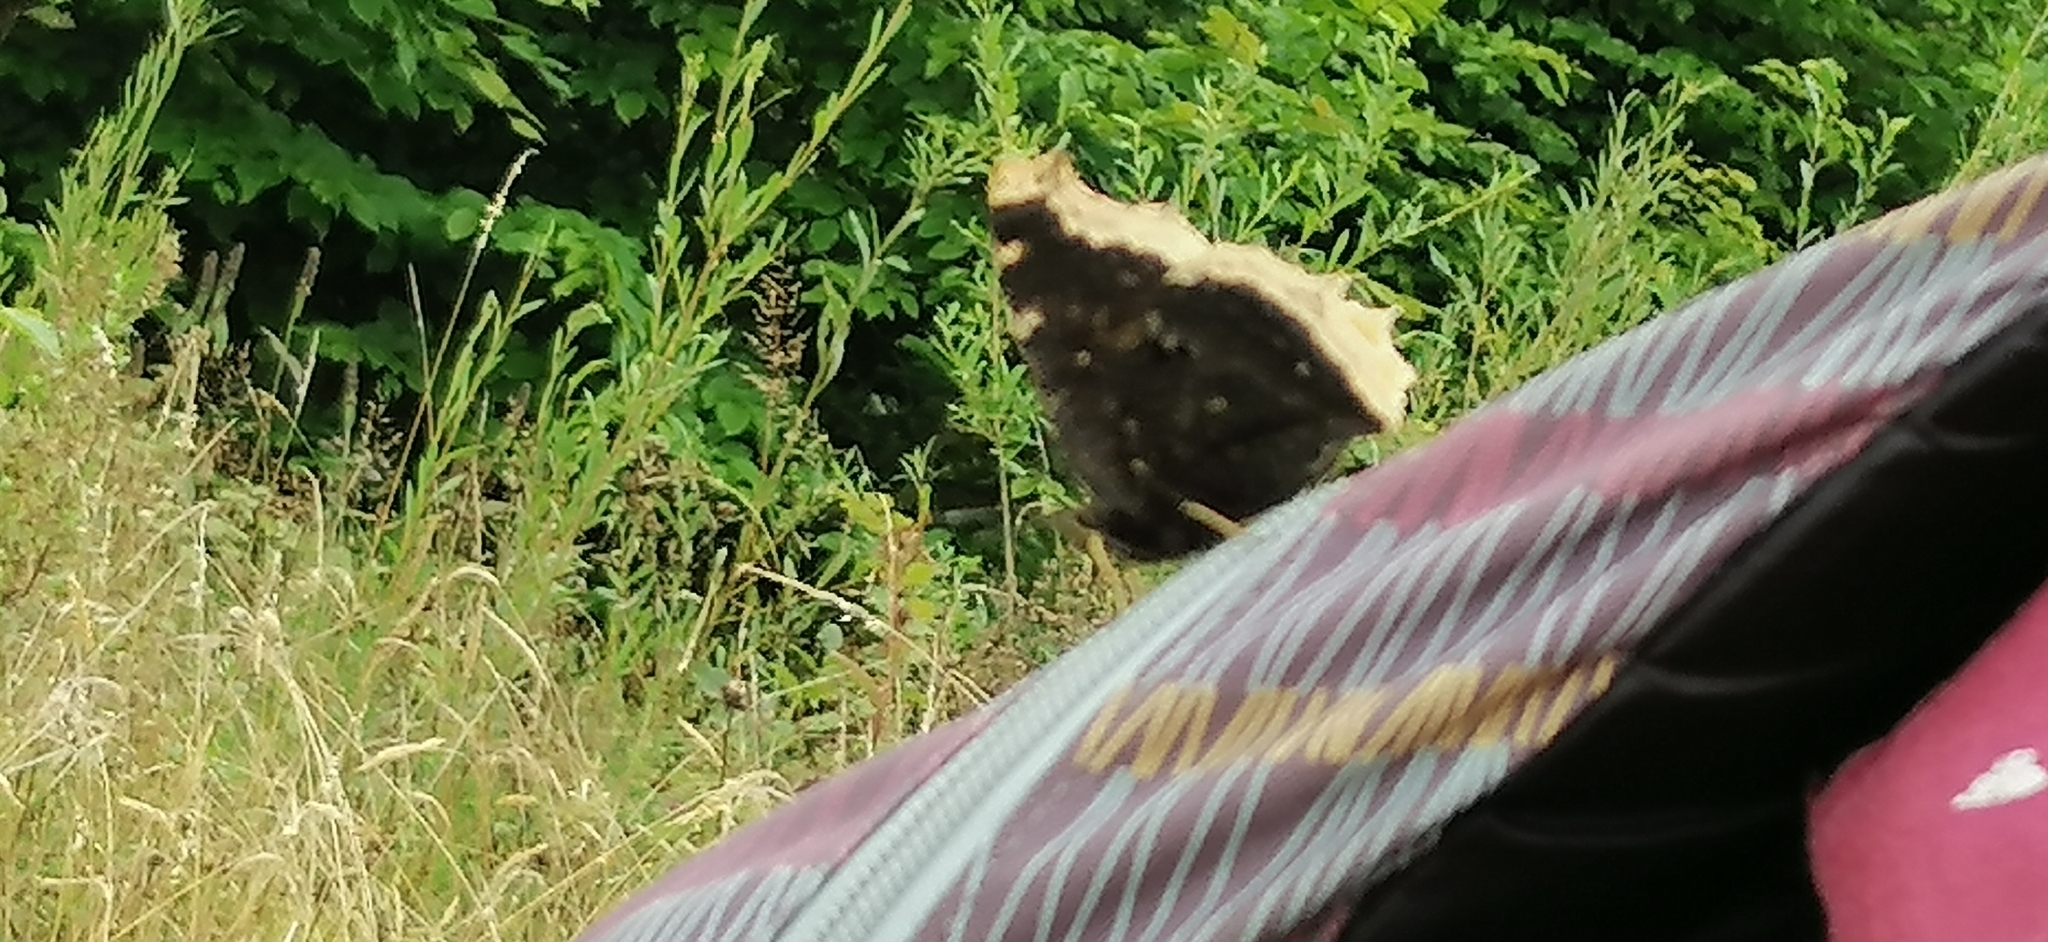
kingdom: Animalia
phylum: Arthropoda
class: Insecta
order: Lepidoptera
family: Nymphalidae
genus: Nymphalis
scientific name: Nymphalis antiopa
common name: Camberwell beauty
